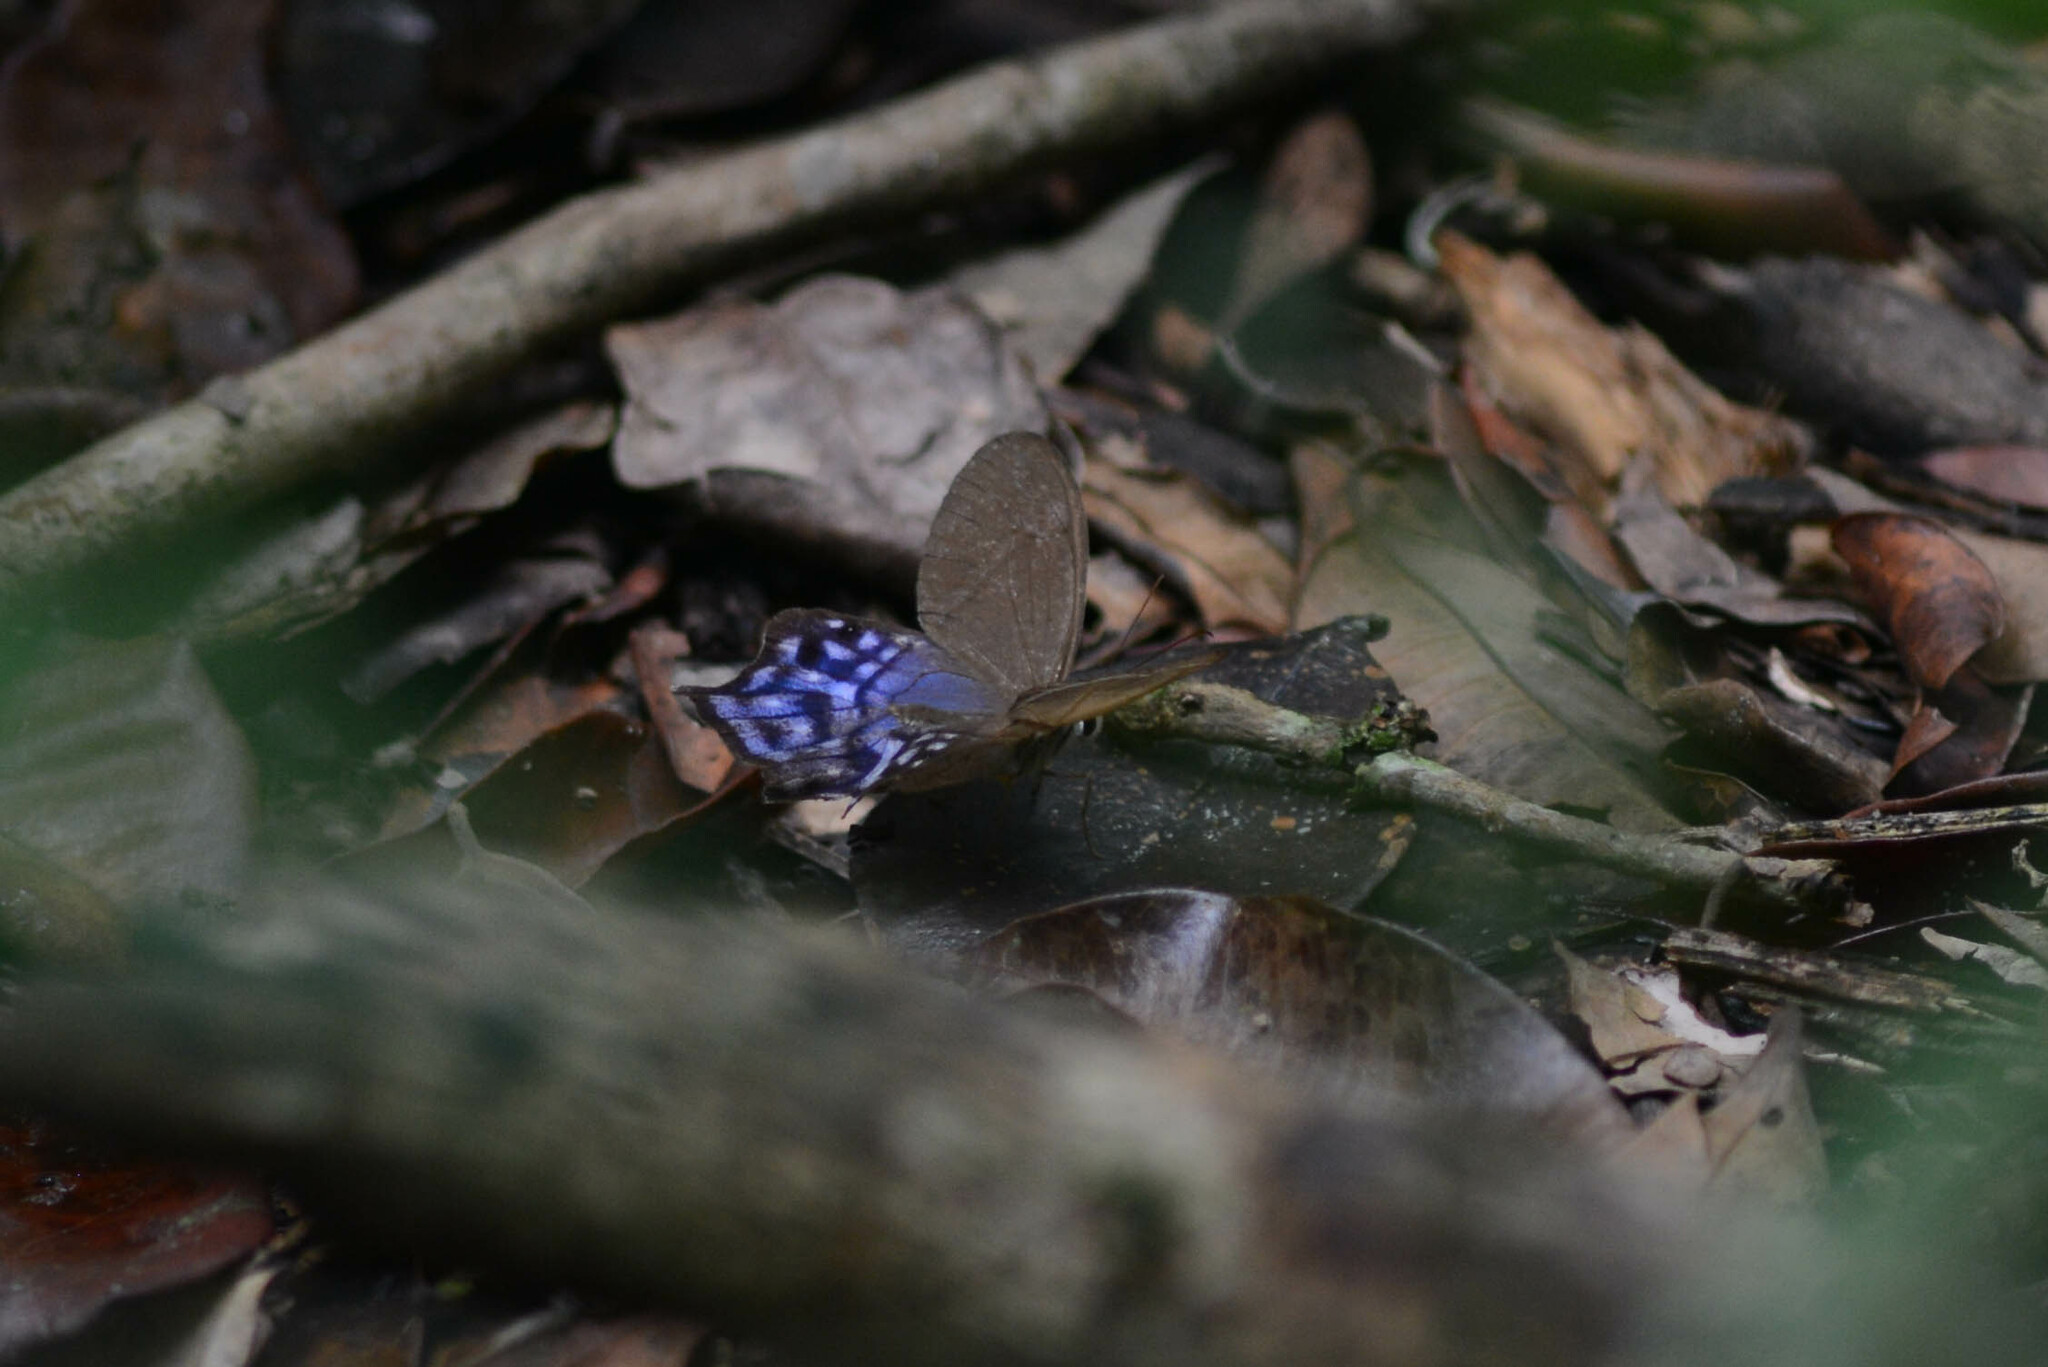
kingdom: Animalia
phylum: Arthropoda
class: Insecta
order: Lepidoptera
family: Nymphalidae
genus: Pierella
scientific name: Pierella dracontis
